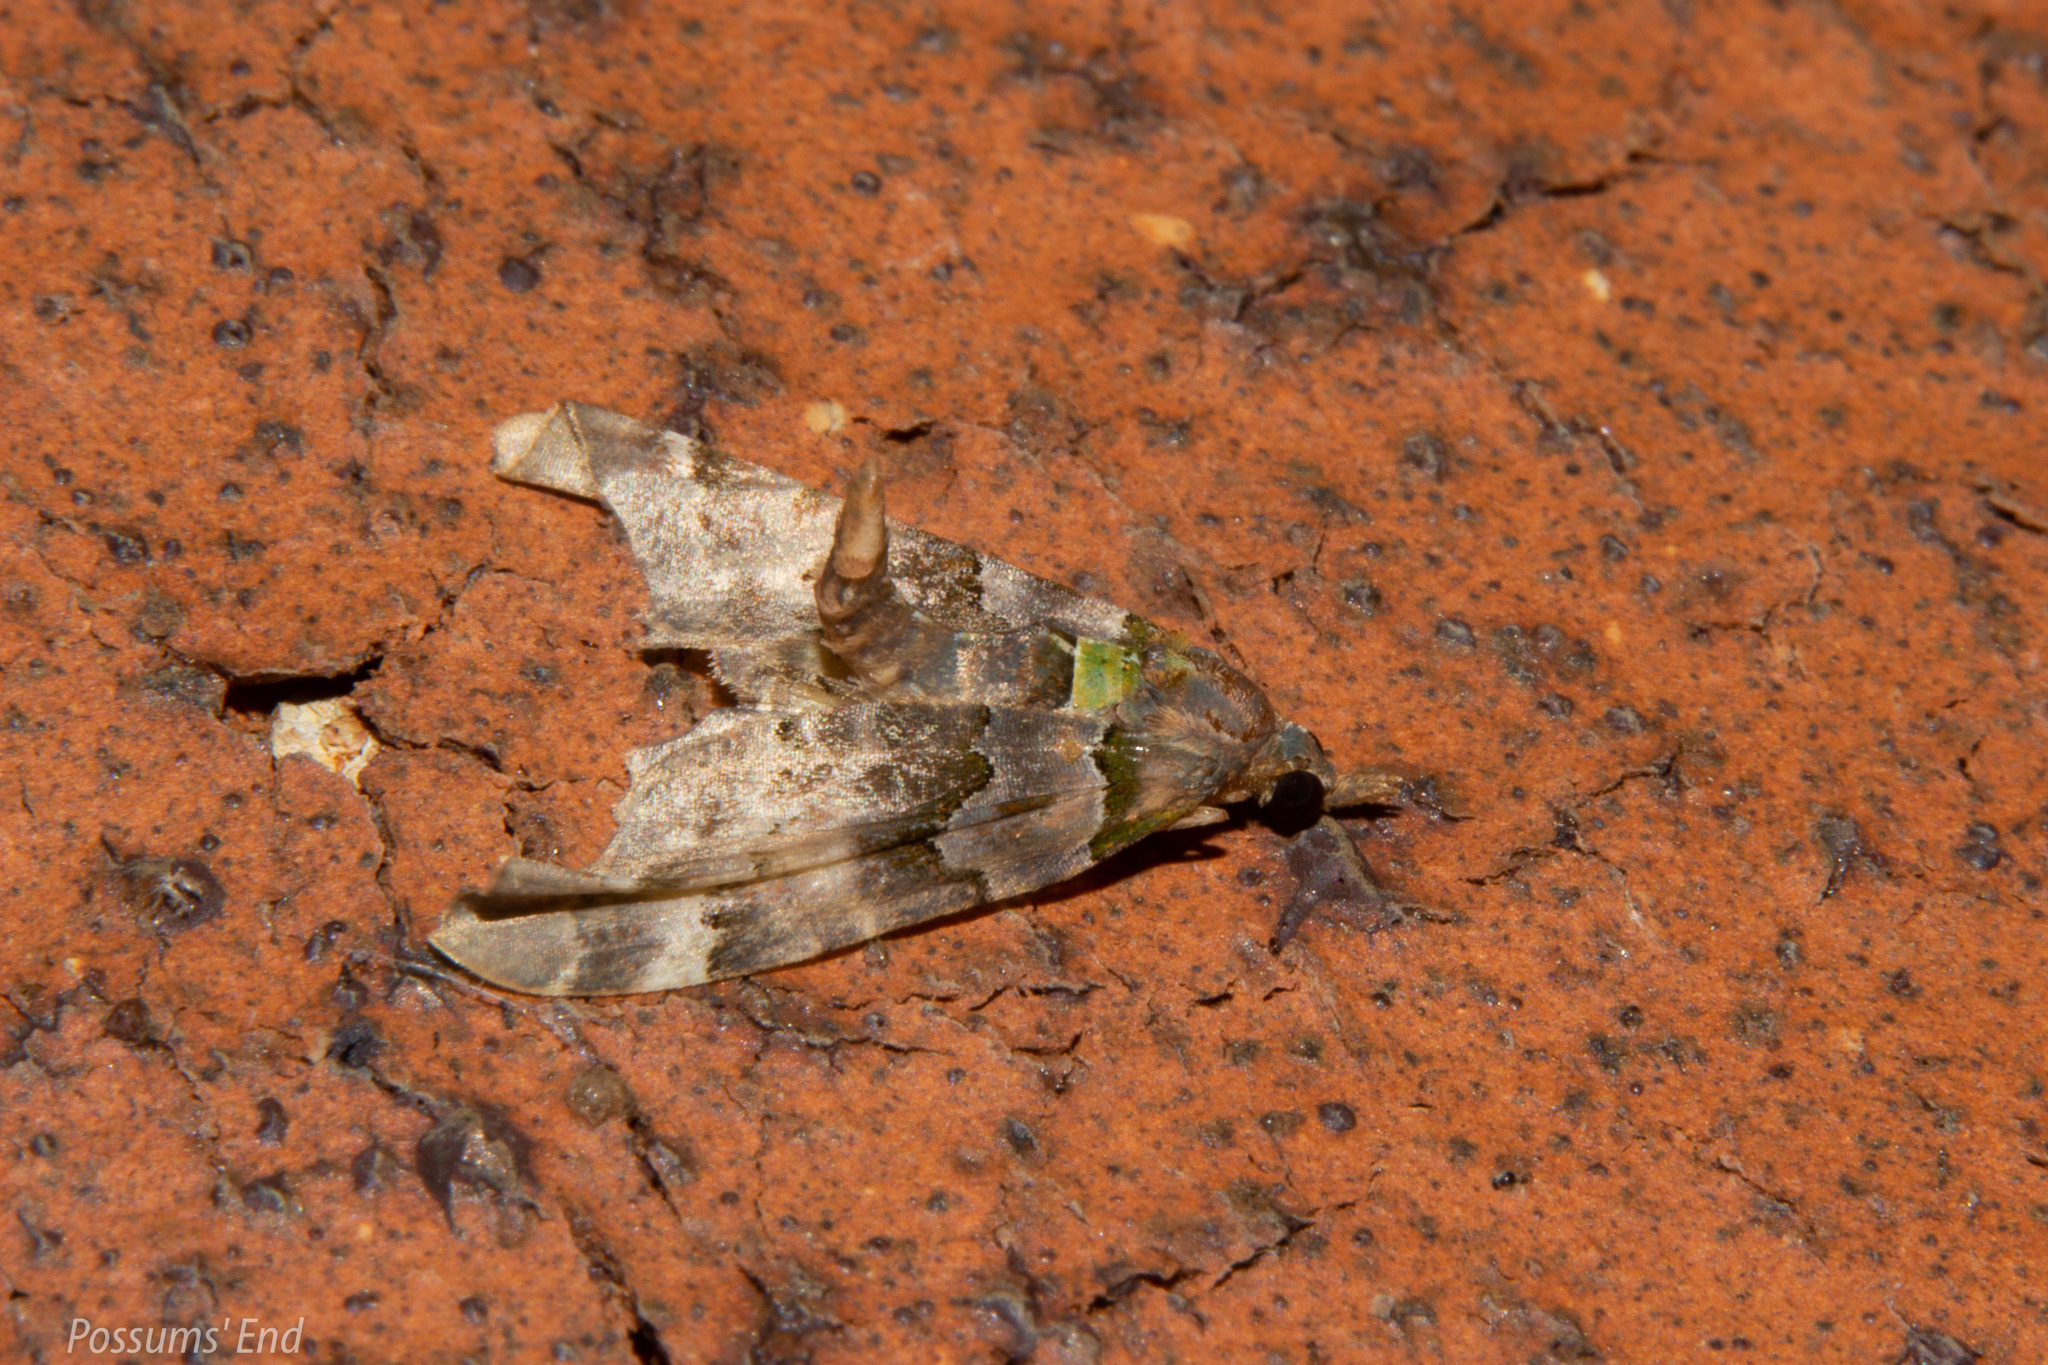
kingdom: Animalia
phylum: Arthropoda
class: Insecta
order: Lepidoptera
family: Geometridae
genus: Elvia
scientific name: Elvia glaucata
